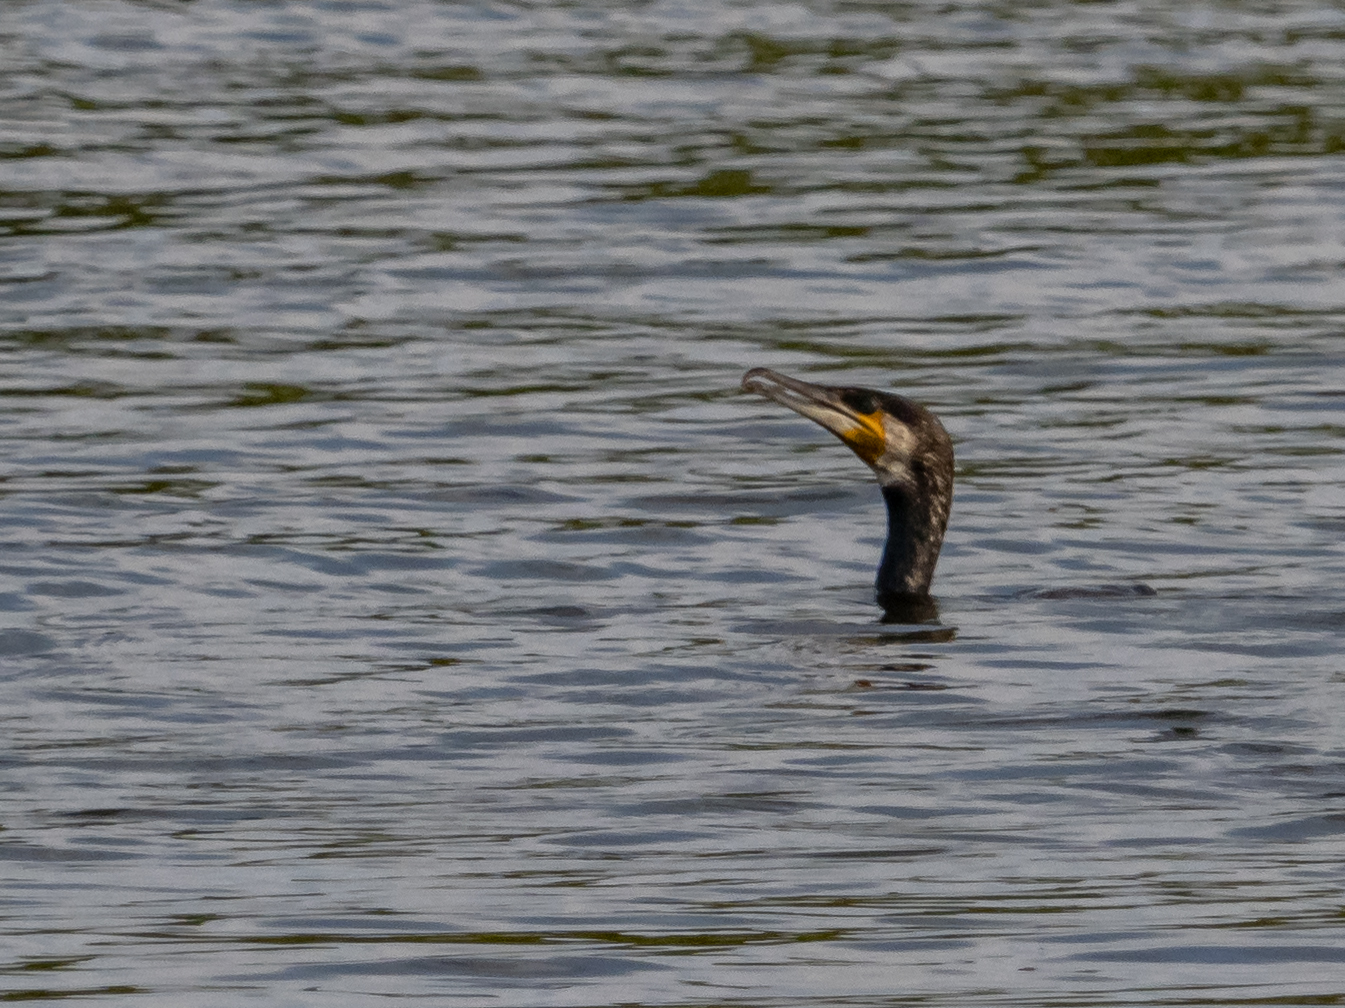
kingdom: Animalia
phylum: Chordata
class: Aves
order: Suliformes
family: Phalacrocoracidae
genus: Phalacrocorax
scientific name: Phalacrocorax carbo
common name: Great cormorant
